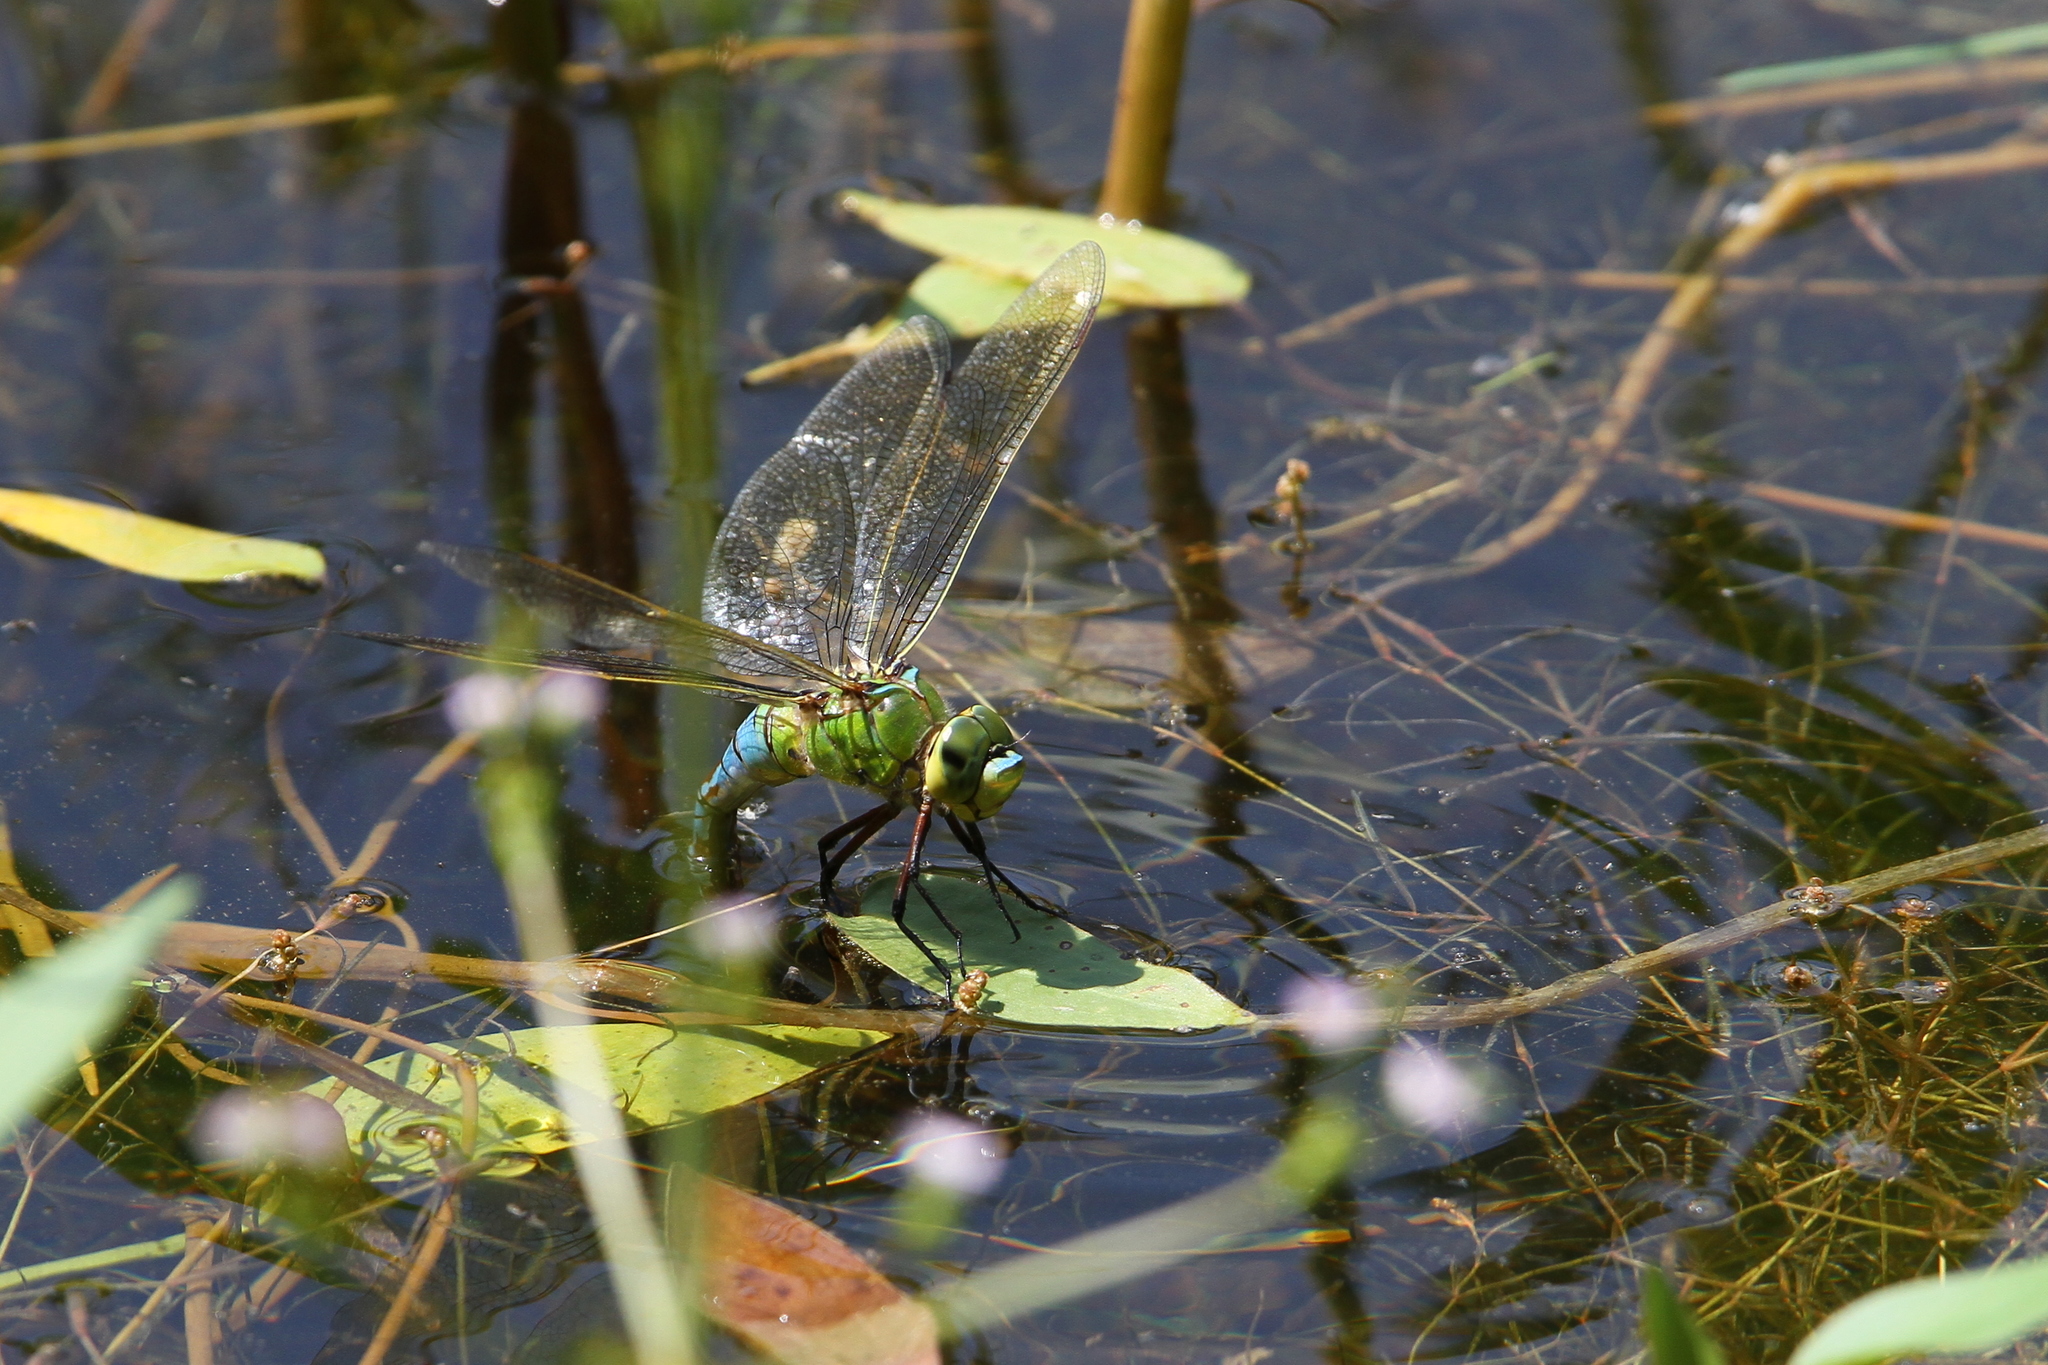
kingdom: Animalia
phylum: Arthropoda
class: Insecta
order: Odonata
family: Aeshnidae
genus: Anax
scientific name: Anax imperator
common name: Emperor dragonfly
